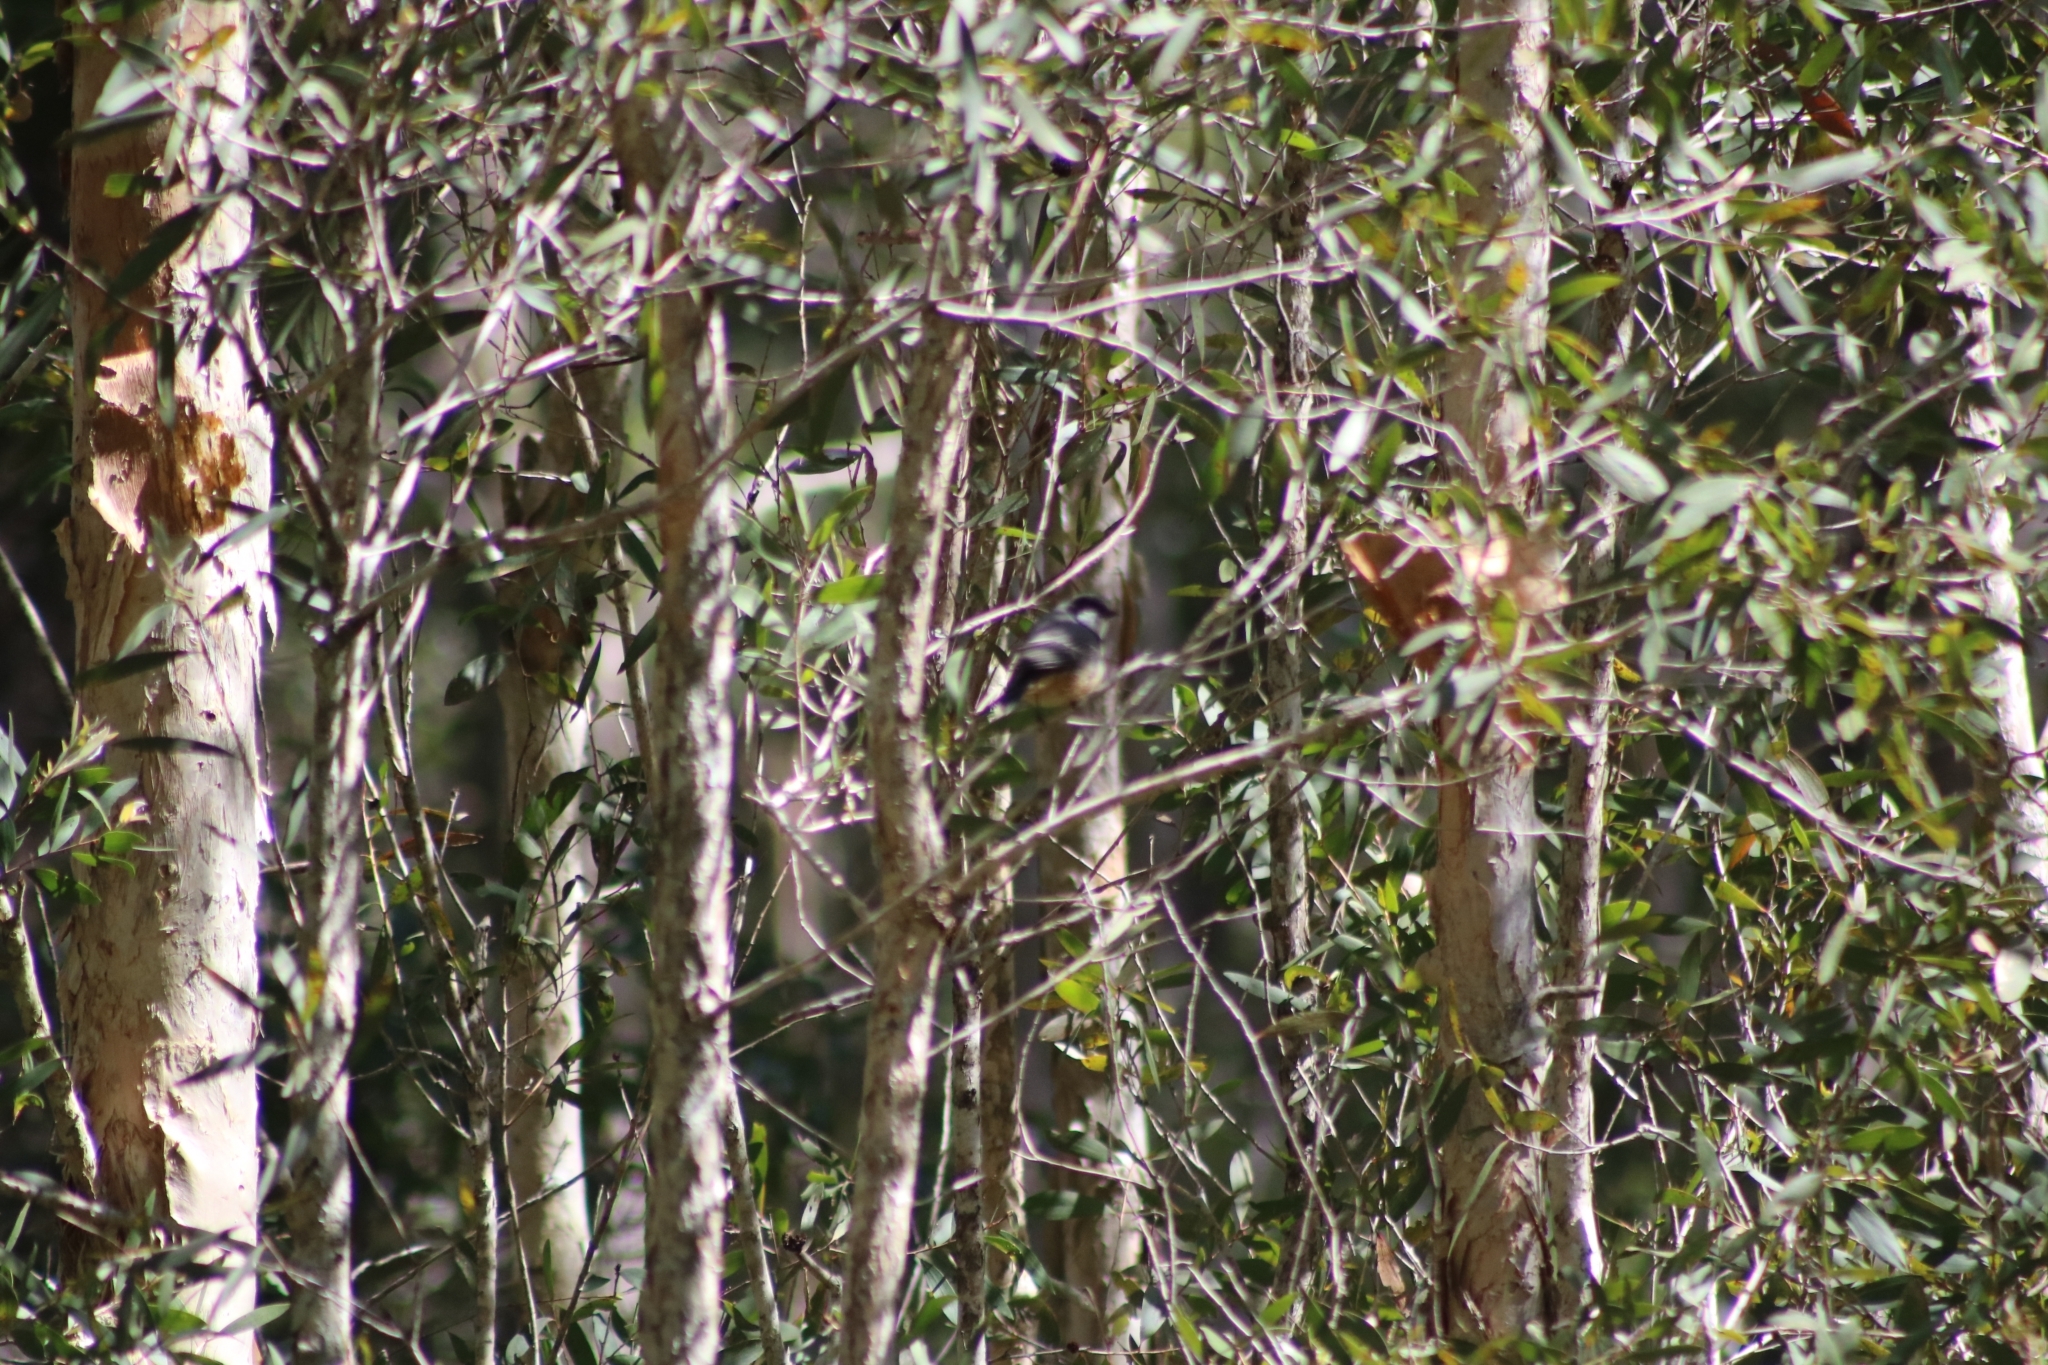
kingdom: Animalia
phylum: Chordata
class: Aves
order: Passeriformes
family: Pachycephalidae
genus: Pachycephala
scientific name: Pachycephala rufiventris
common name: Rufous whistler
